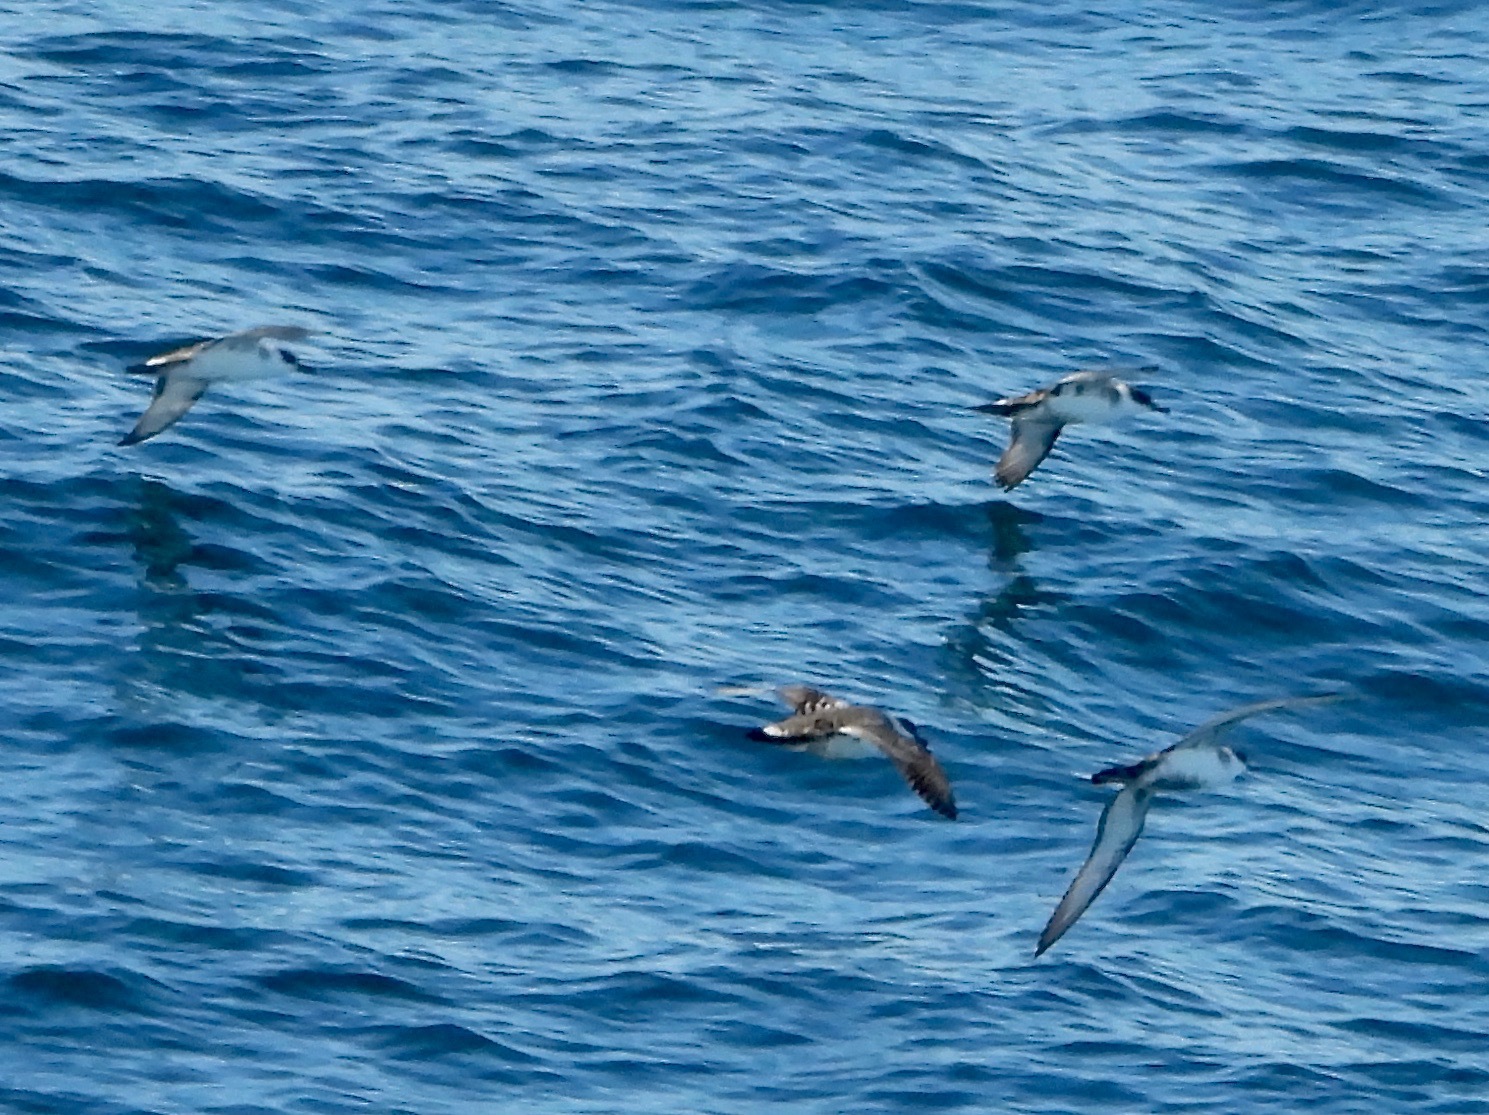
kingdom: Animalia
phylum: Chordata
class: Aves
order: Procellariiformes
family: Procellariidae
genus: Puffinus
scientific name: Puffinus gravis
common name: Great shearwater
